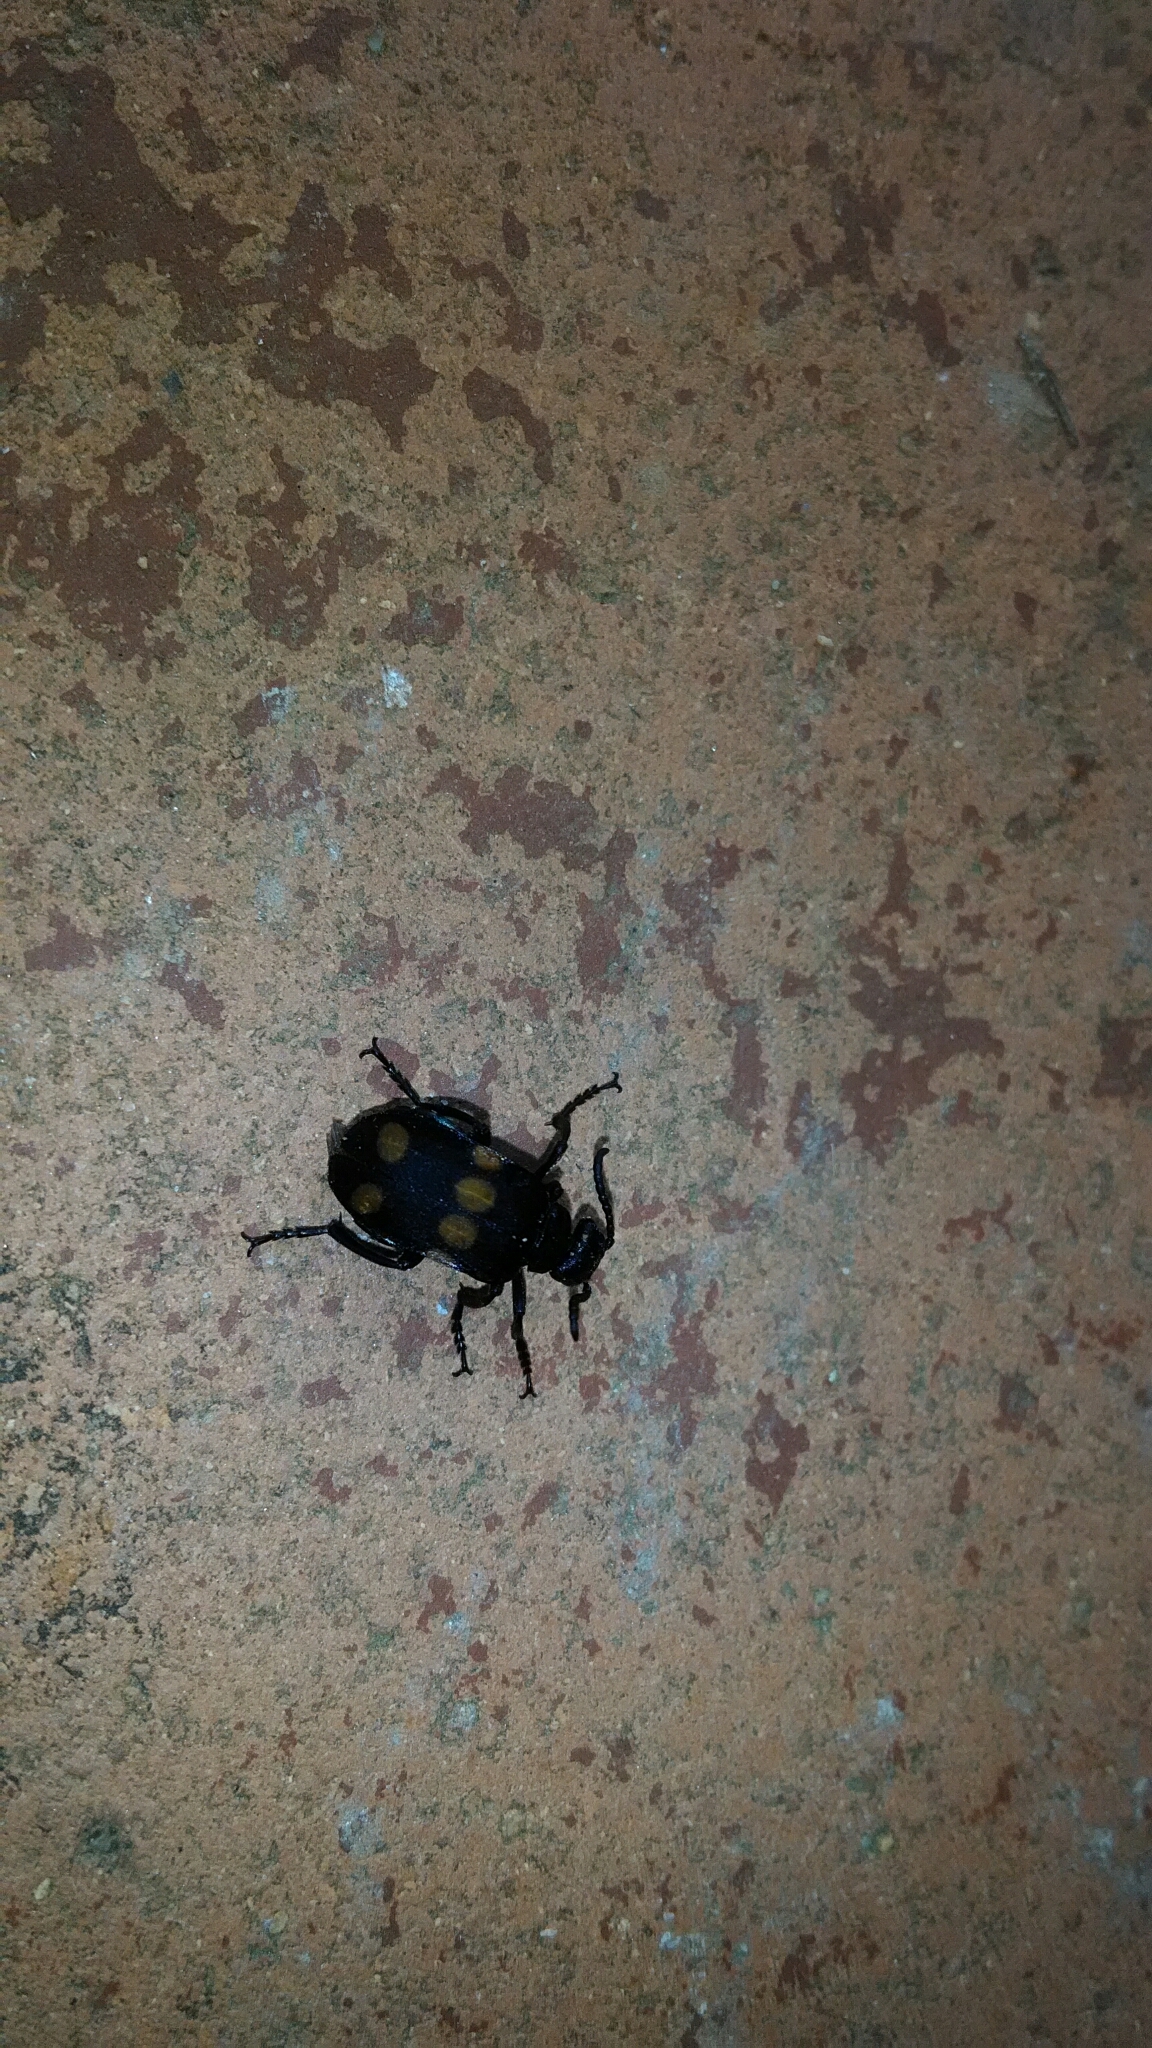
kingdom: Animalia
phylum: Arthropoda
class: Insecta
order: Coleoptera
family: Meloidae
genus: Tetraonyx
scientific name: Tetraonyx
